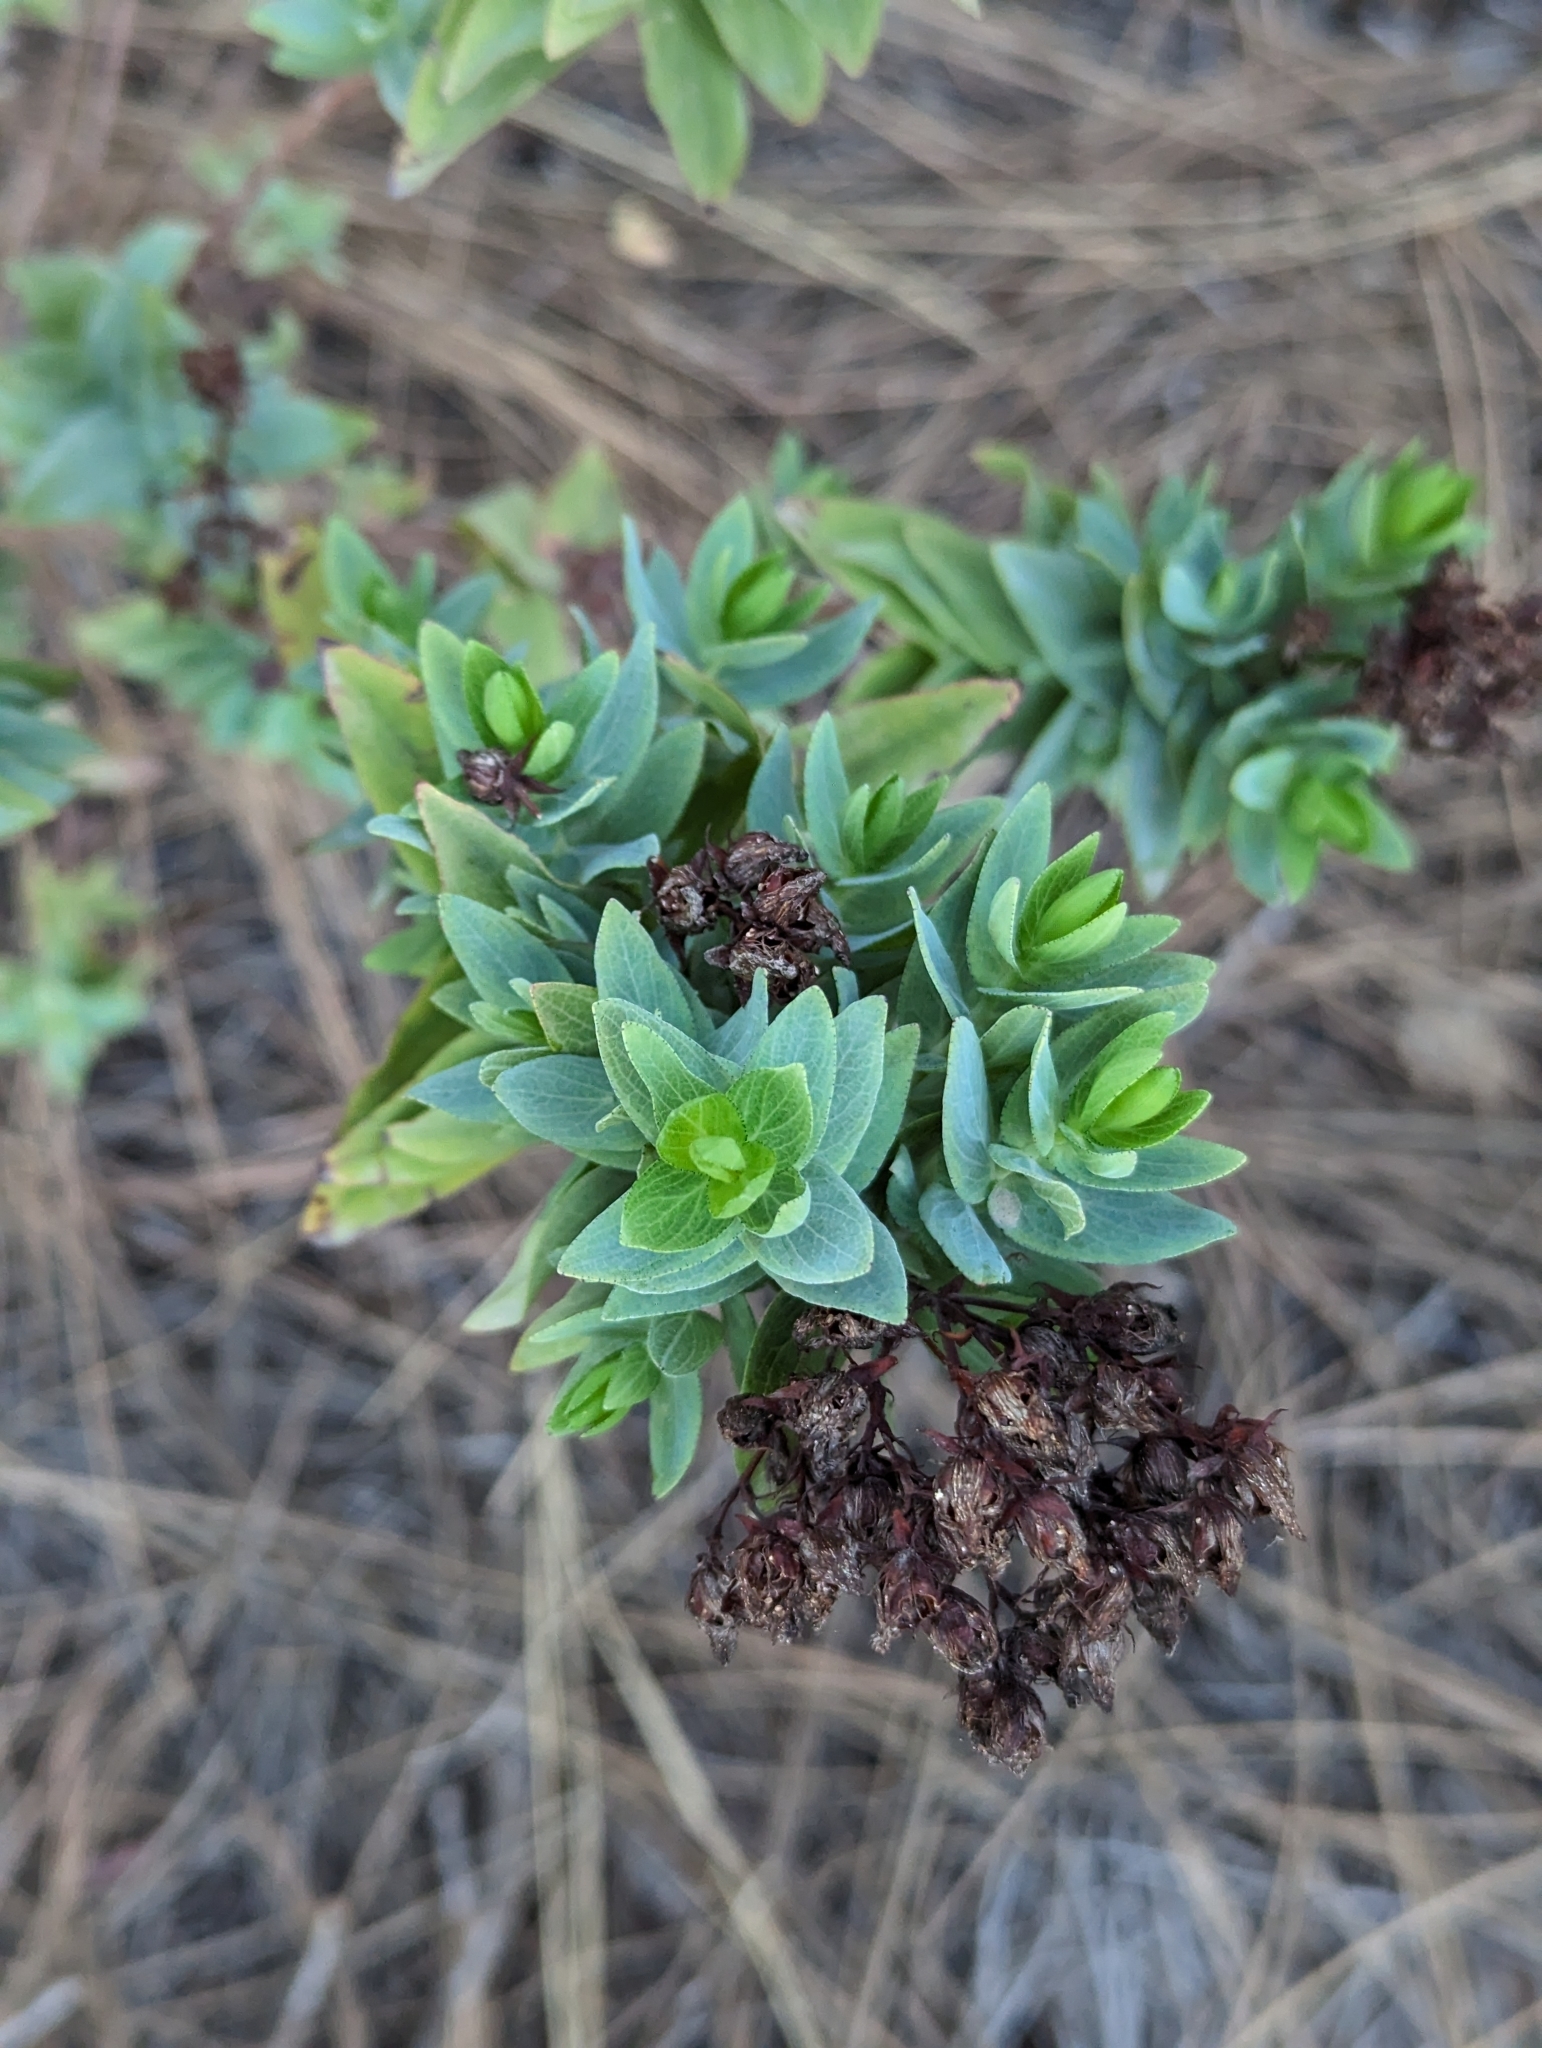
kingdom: Plantae
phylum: Tracheophyta
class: Magnoliopsida
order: Malpighiales
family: Hypericaceae
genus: Hypericum
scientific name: Hypericum reflexum
